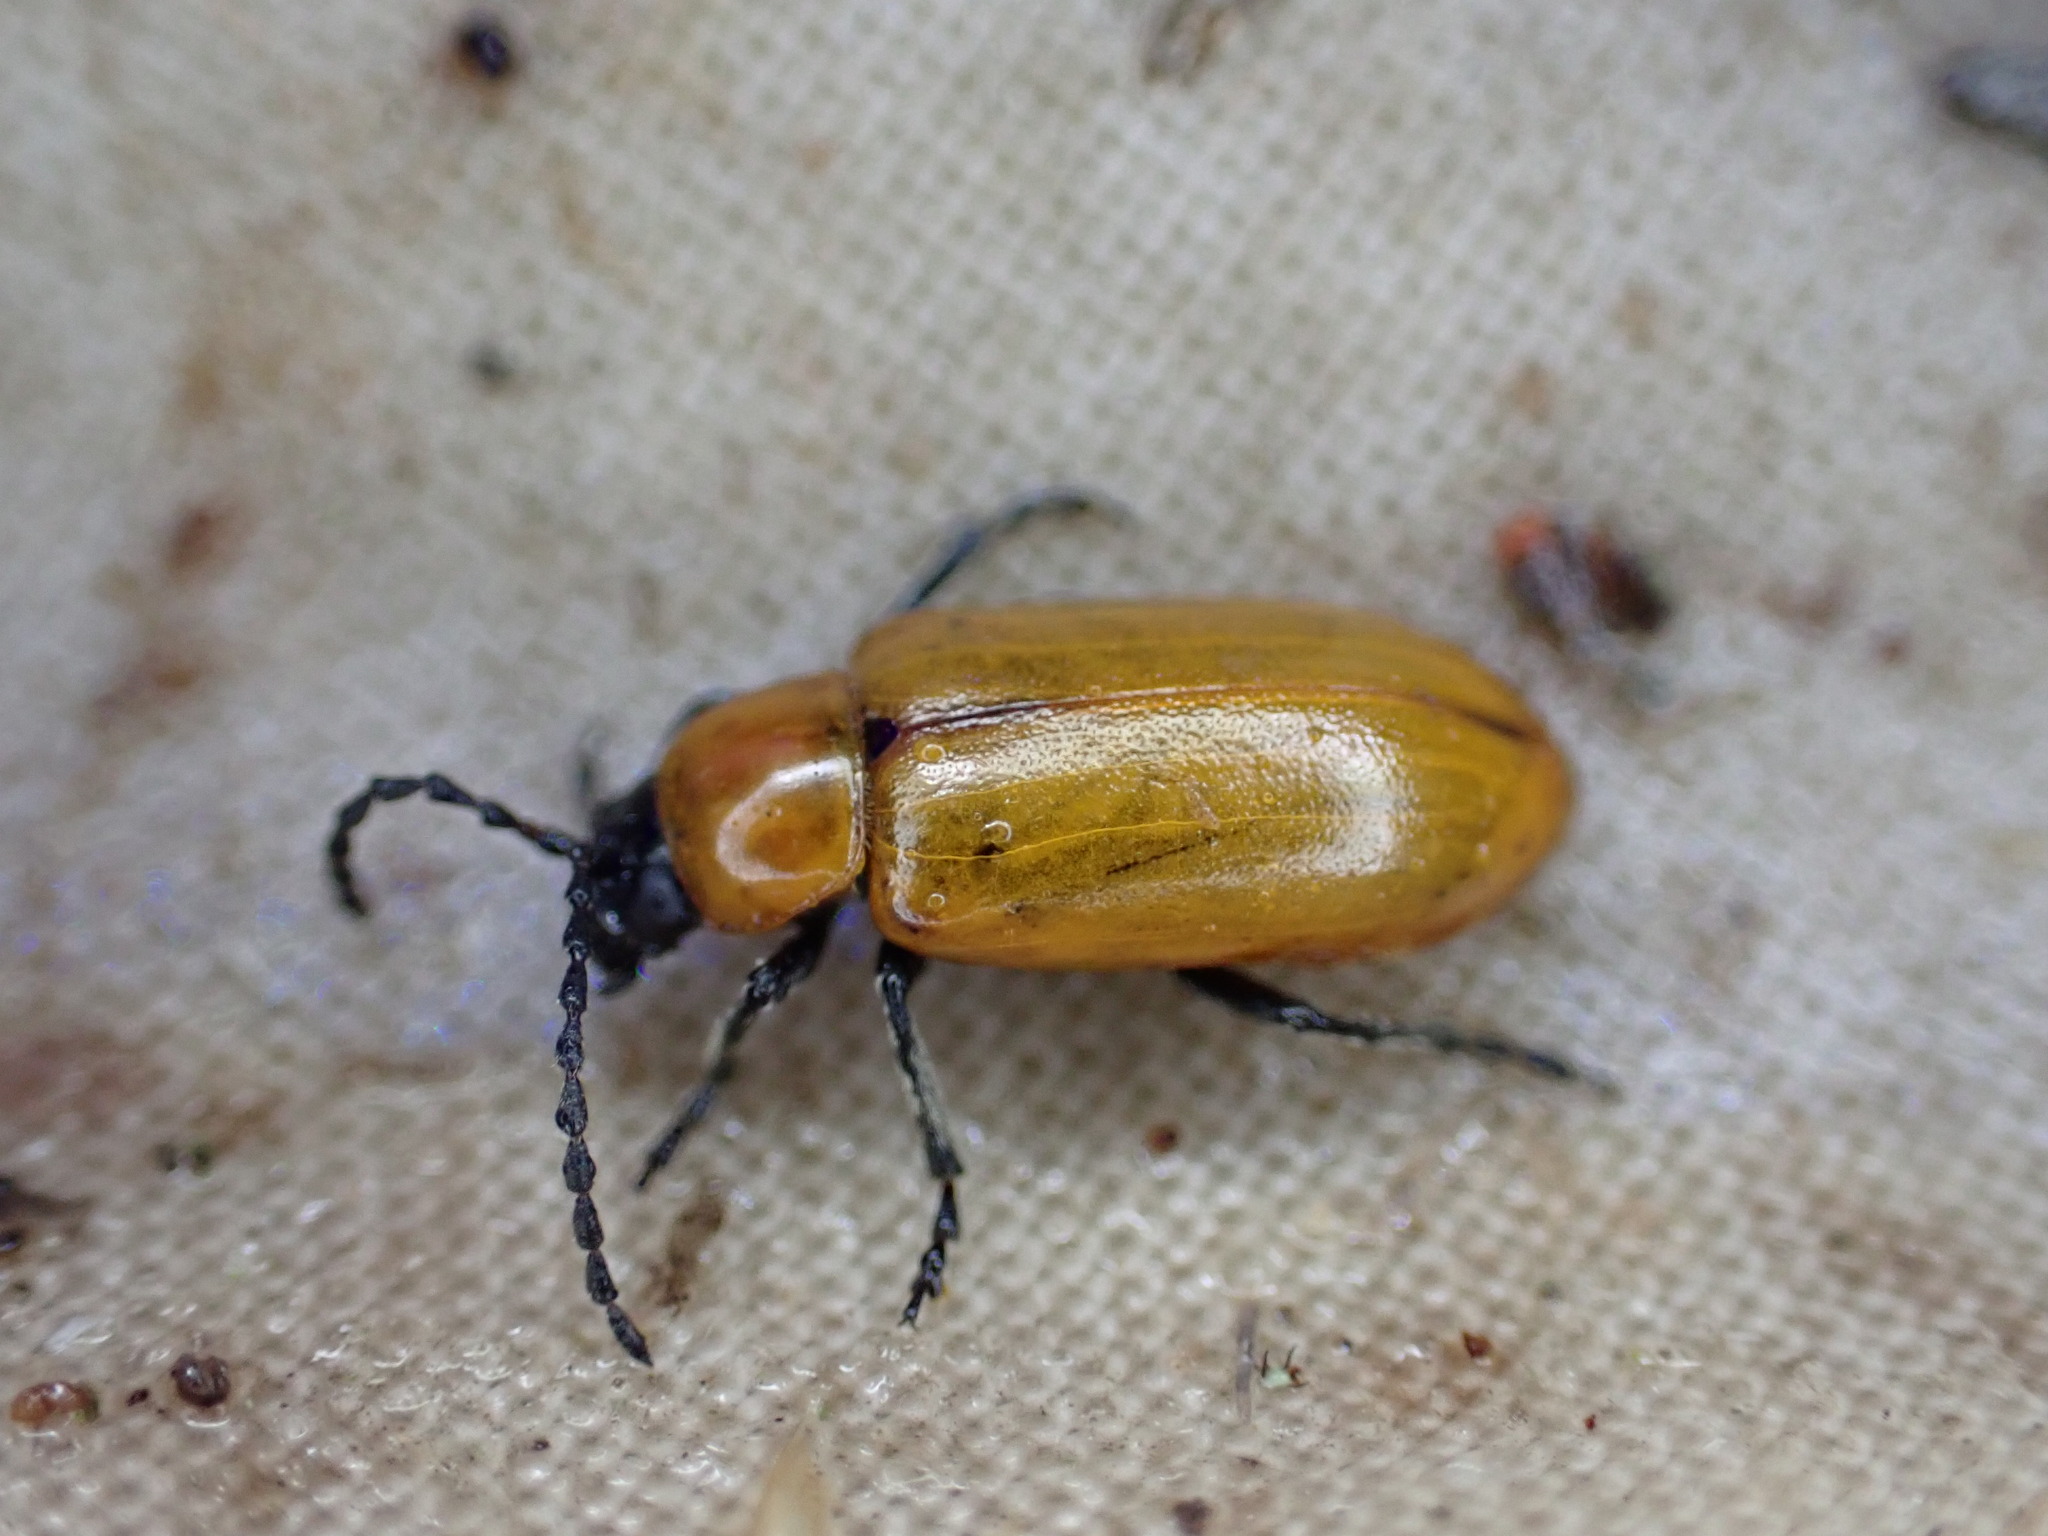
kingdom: Animalia
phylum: Arthropoda
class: Insecta
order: Coleoptera
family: Chrysomelidae
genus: Exosoma
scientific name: Exosoma lusitanicum
